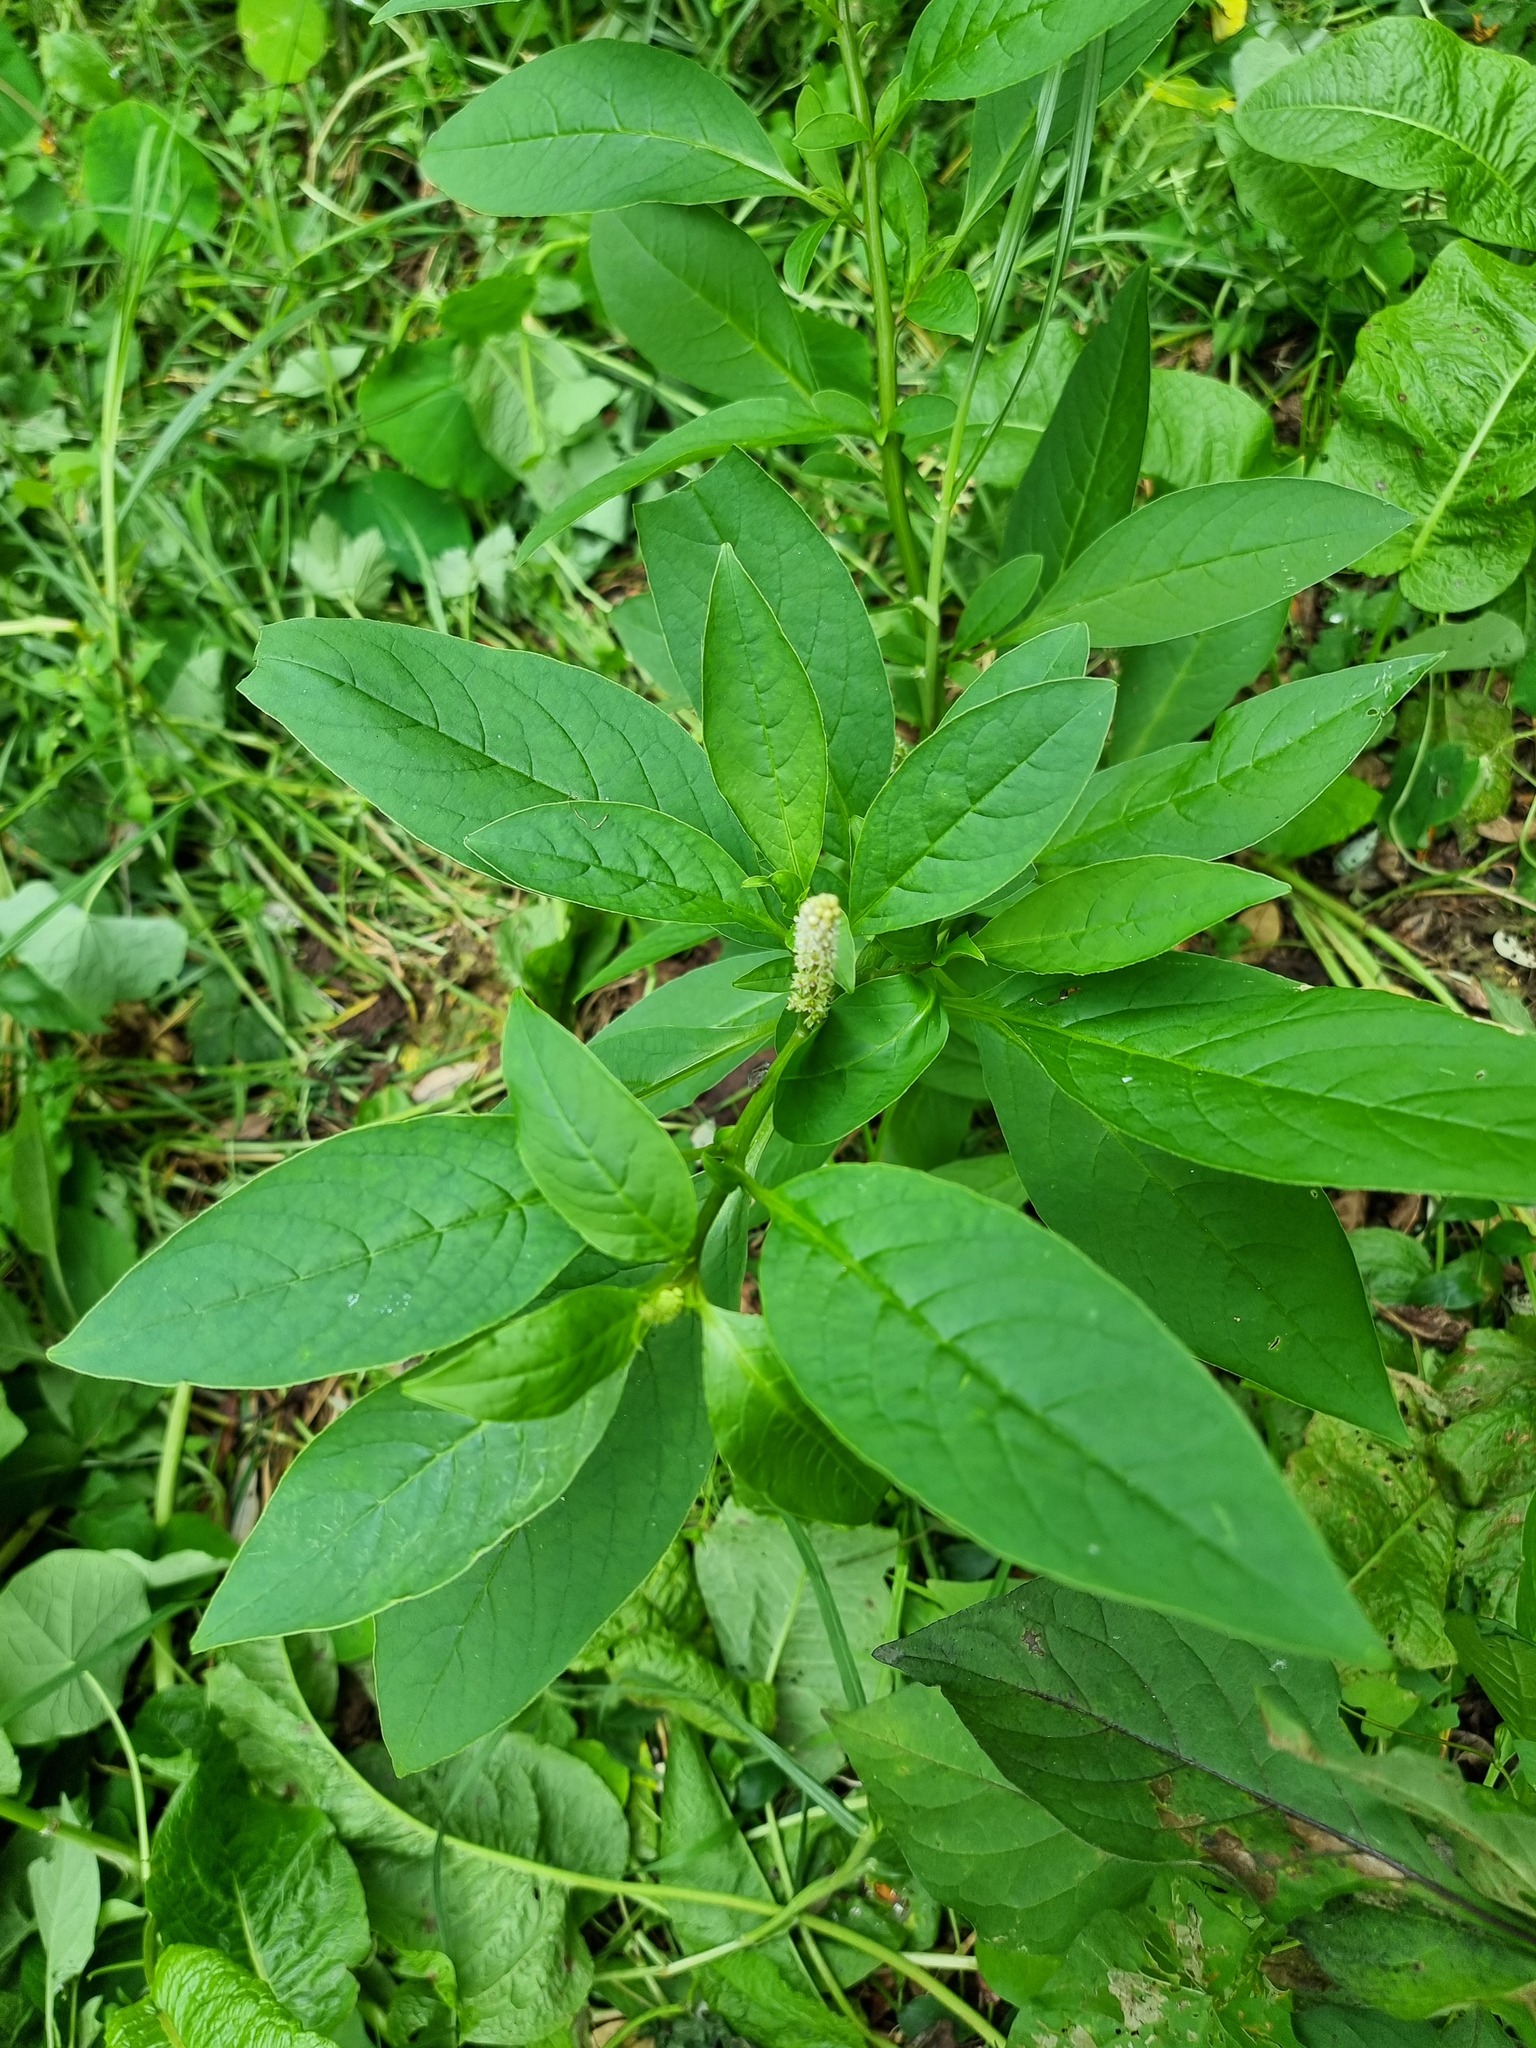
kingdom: Plantae
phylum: Tracheophyta
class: Magnoliopsida
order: Caryophyllales
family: Phytolaccaceae
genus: Phytolacca
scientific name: Phytolacca icosandra
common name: Button pokeweed
